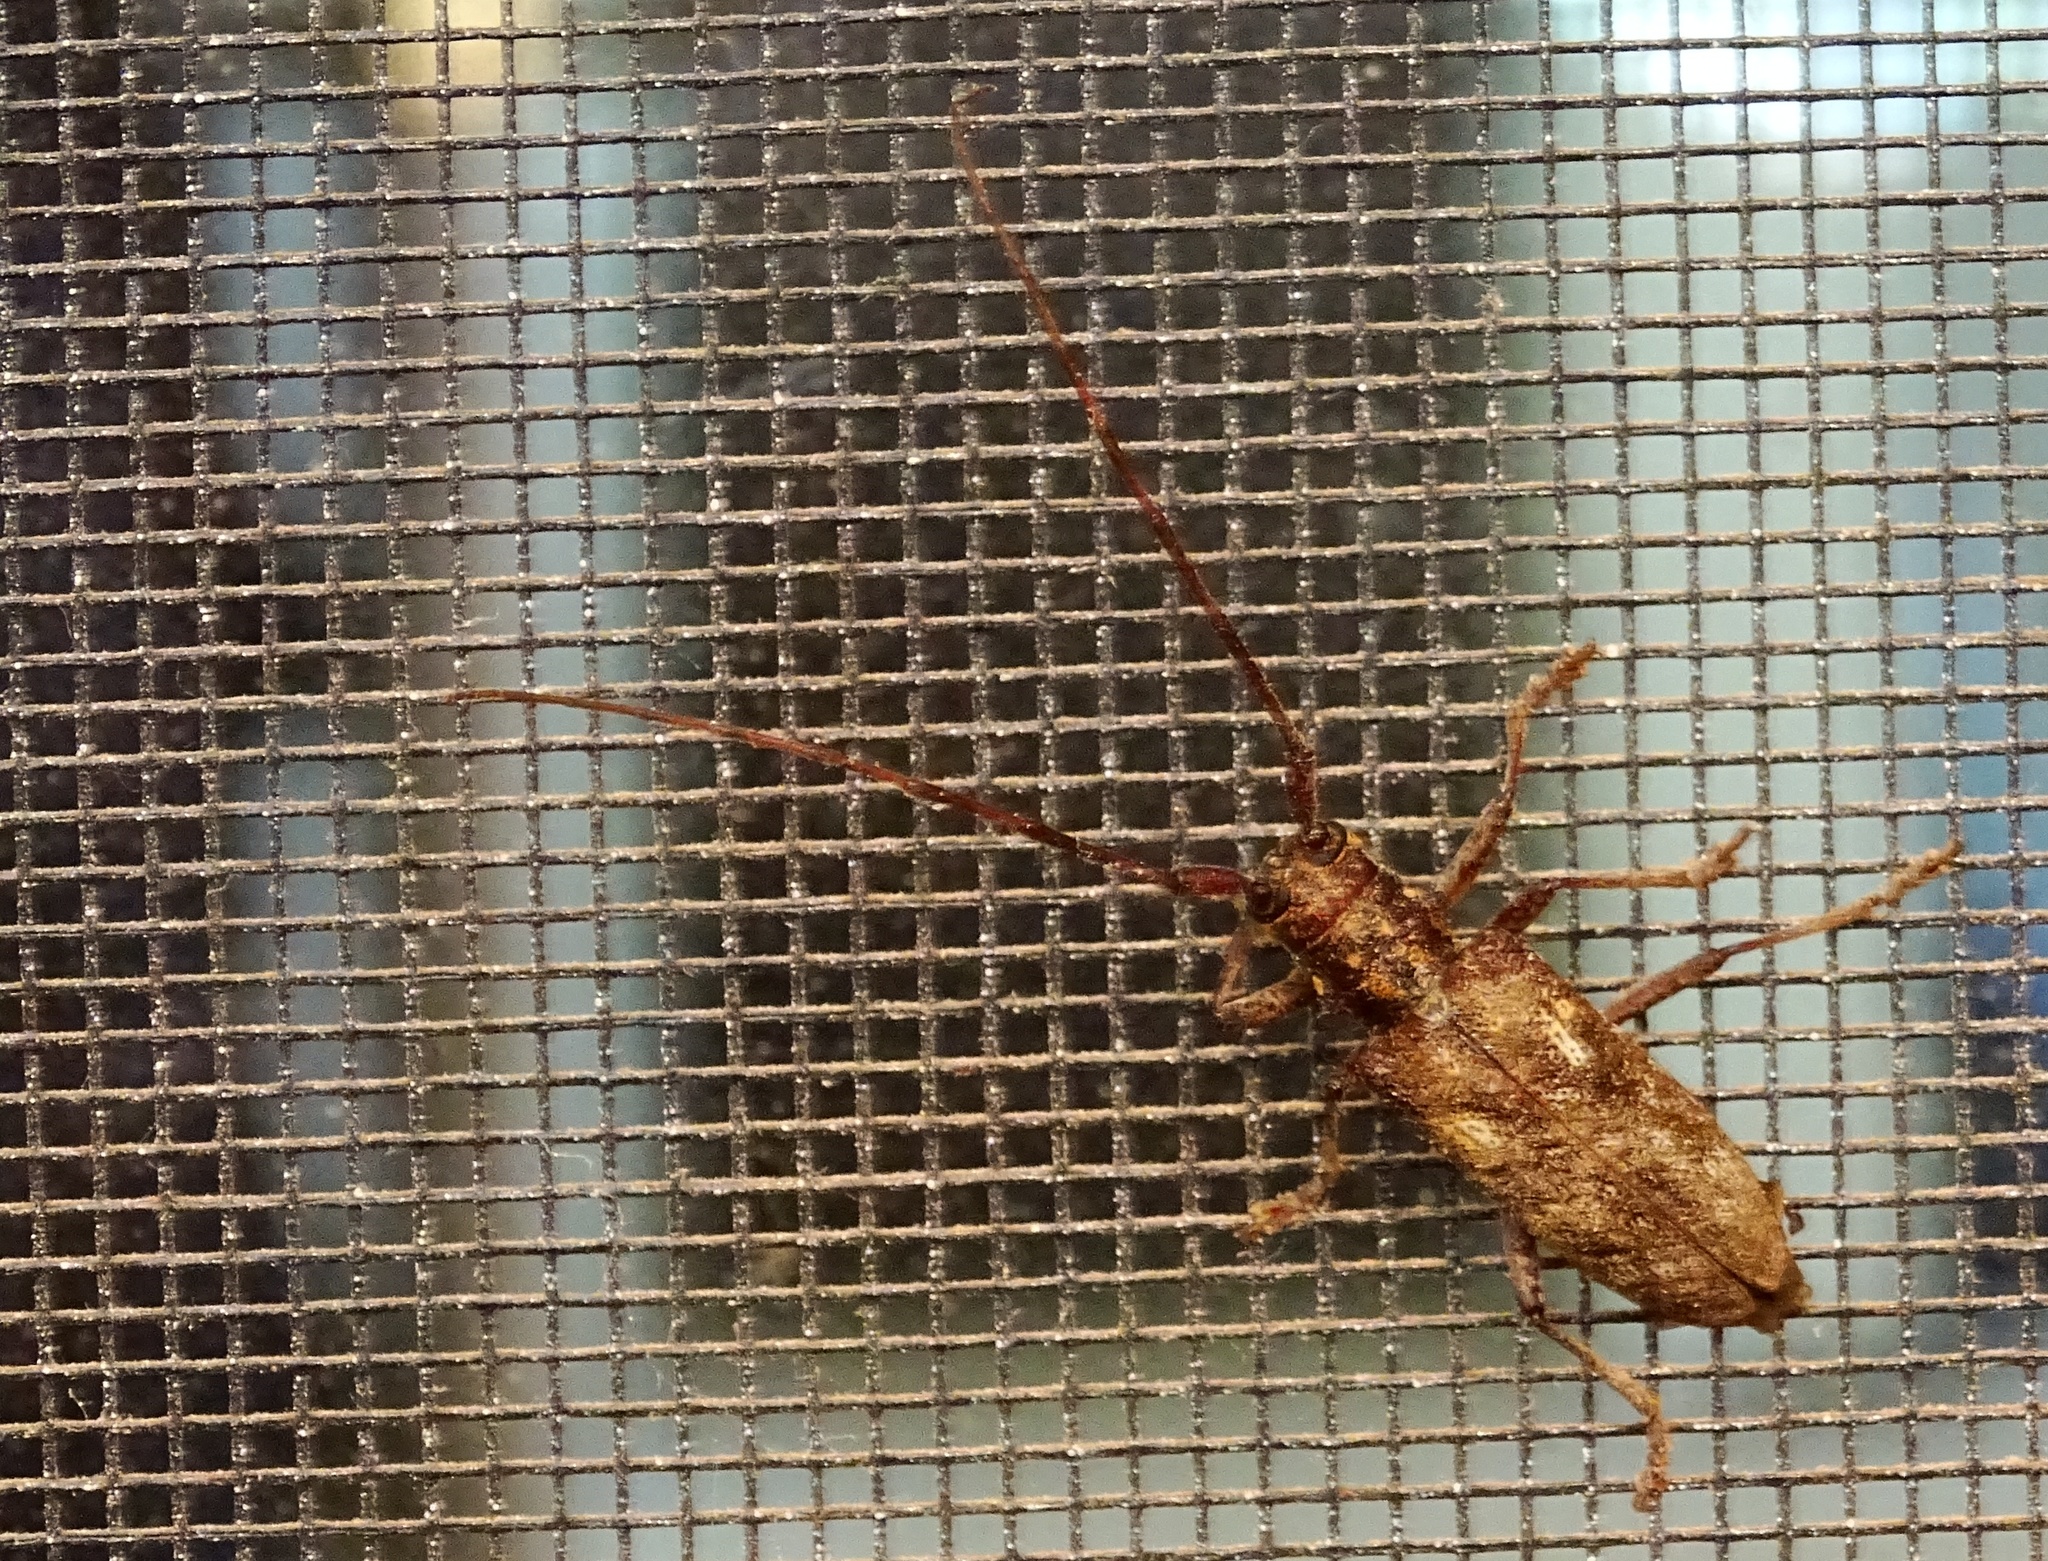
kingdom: Animalia
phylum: Arthropoda
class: Insecta
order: Coleoptera
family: Cerambycidae
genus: Monochamus
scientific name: Monochamus carolinensis
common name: Carolina pine sawyer
